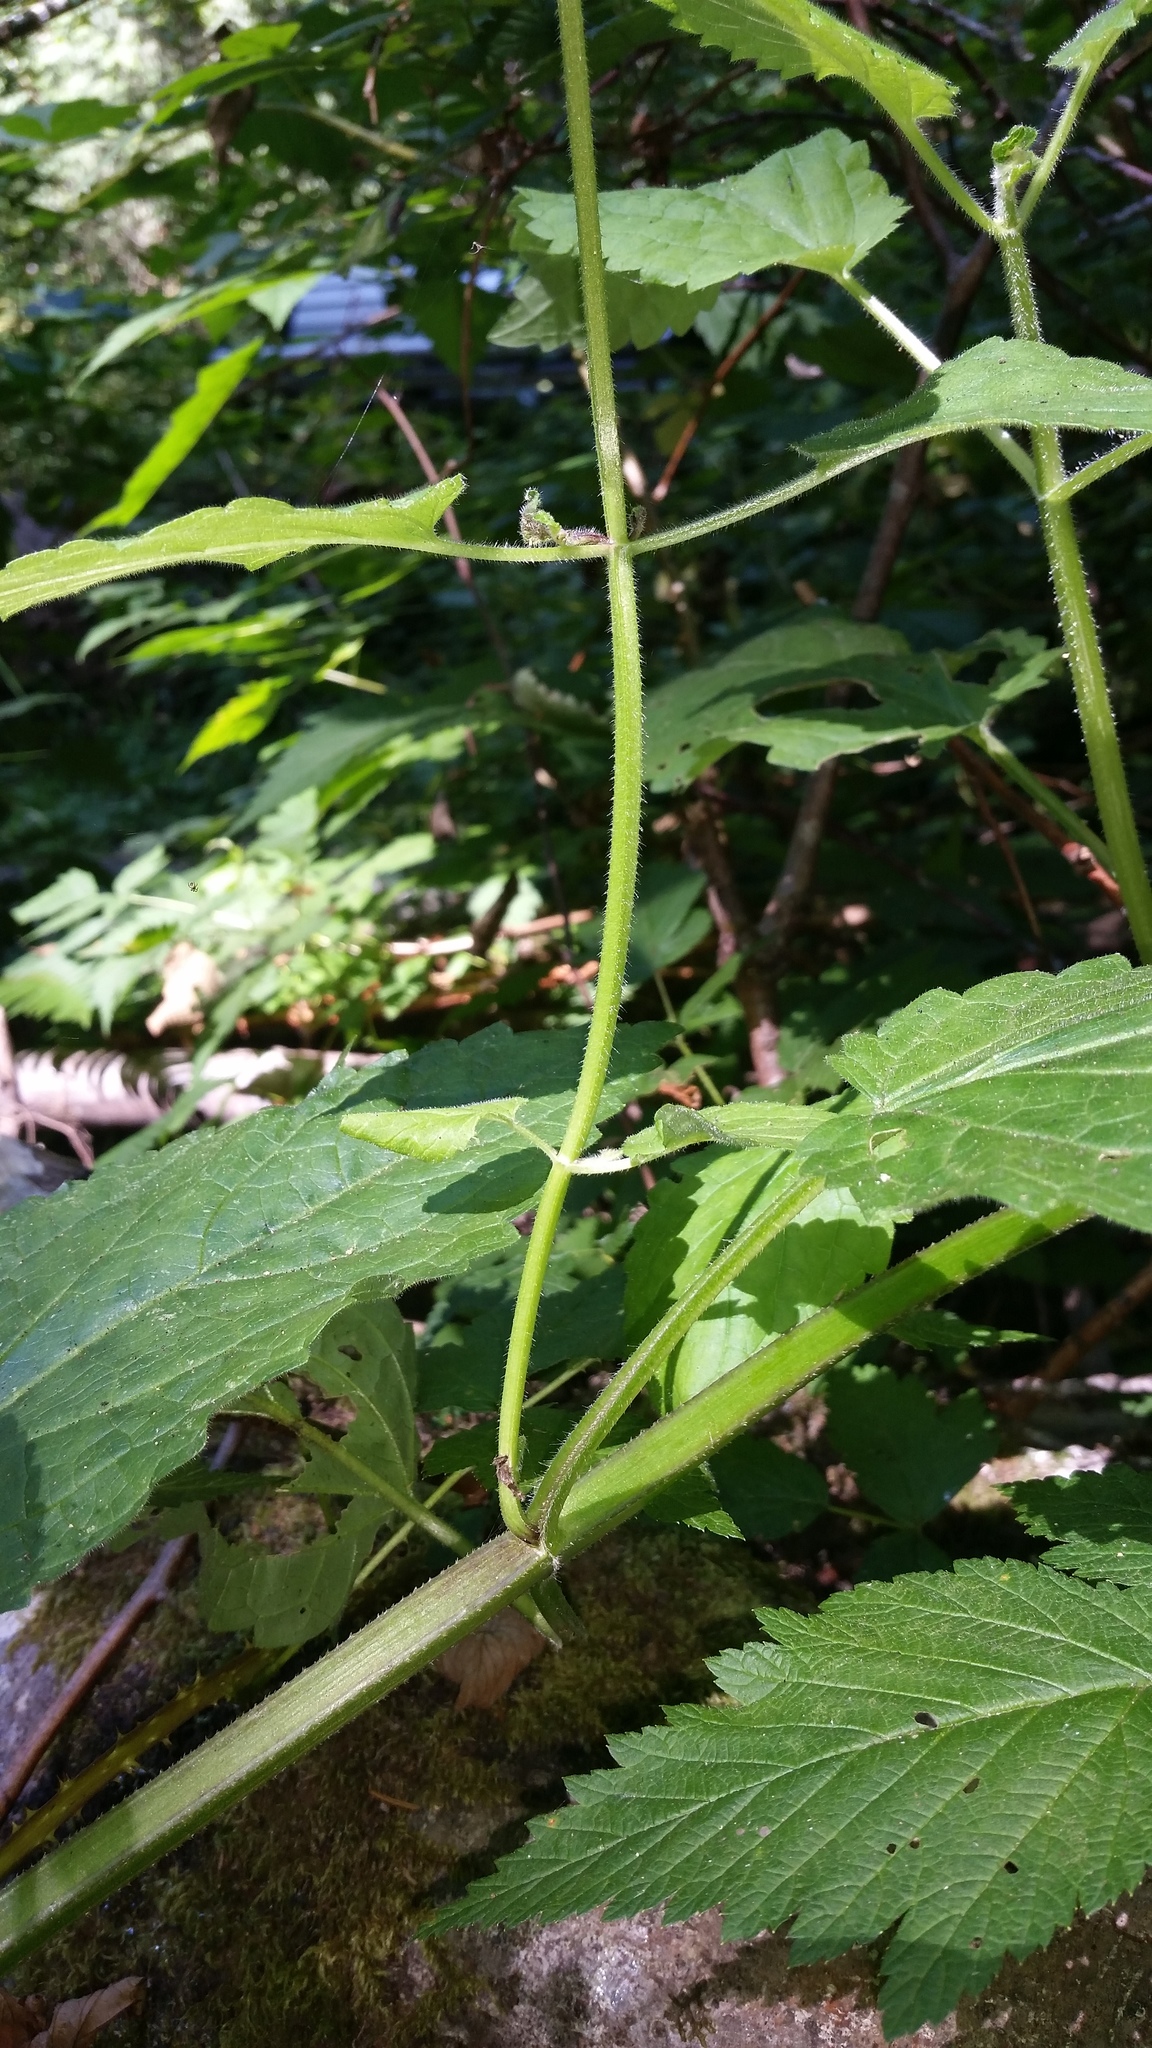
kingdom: Plantae
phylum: Tracheophyta
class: Magnoliopsida
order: Lamiales
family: Lamiaceae
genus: Stachys
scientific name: Stachys chamissonis
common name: Coastal hedge-nettle
